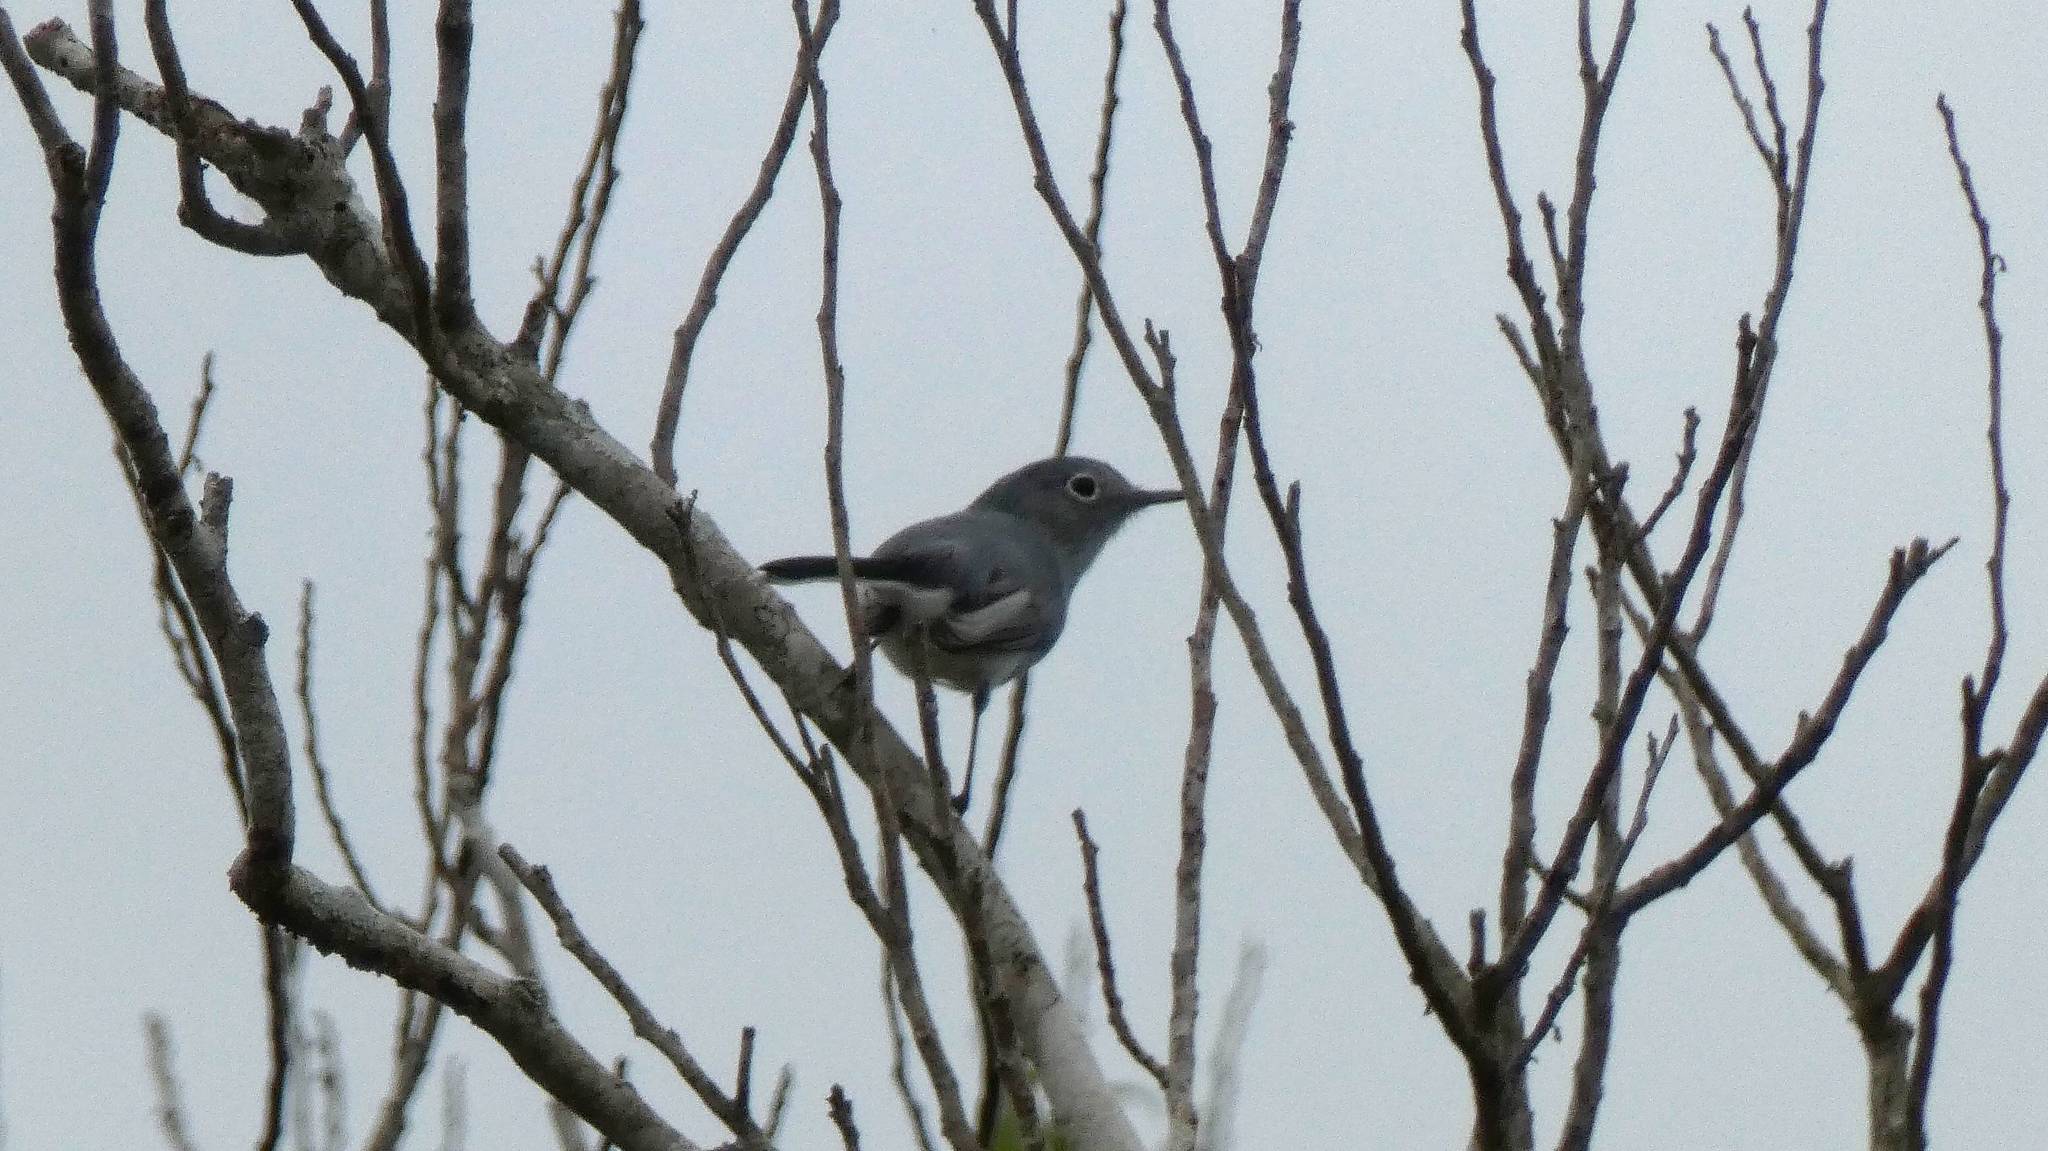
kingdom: Animalia
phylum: Chordata
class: Aves
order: Passeriformes
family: Polioptilidae
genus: Polioptila
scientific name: Polioptila caerulea
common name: Blue-gray gnatcatcher
